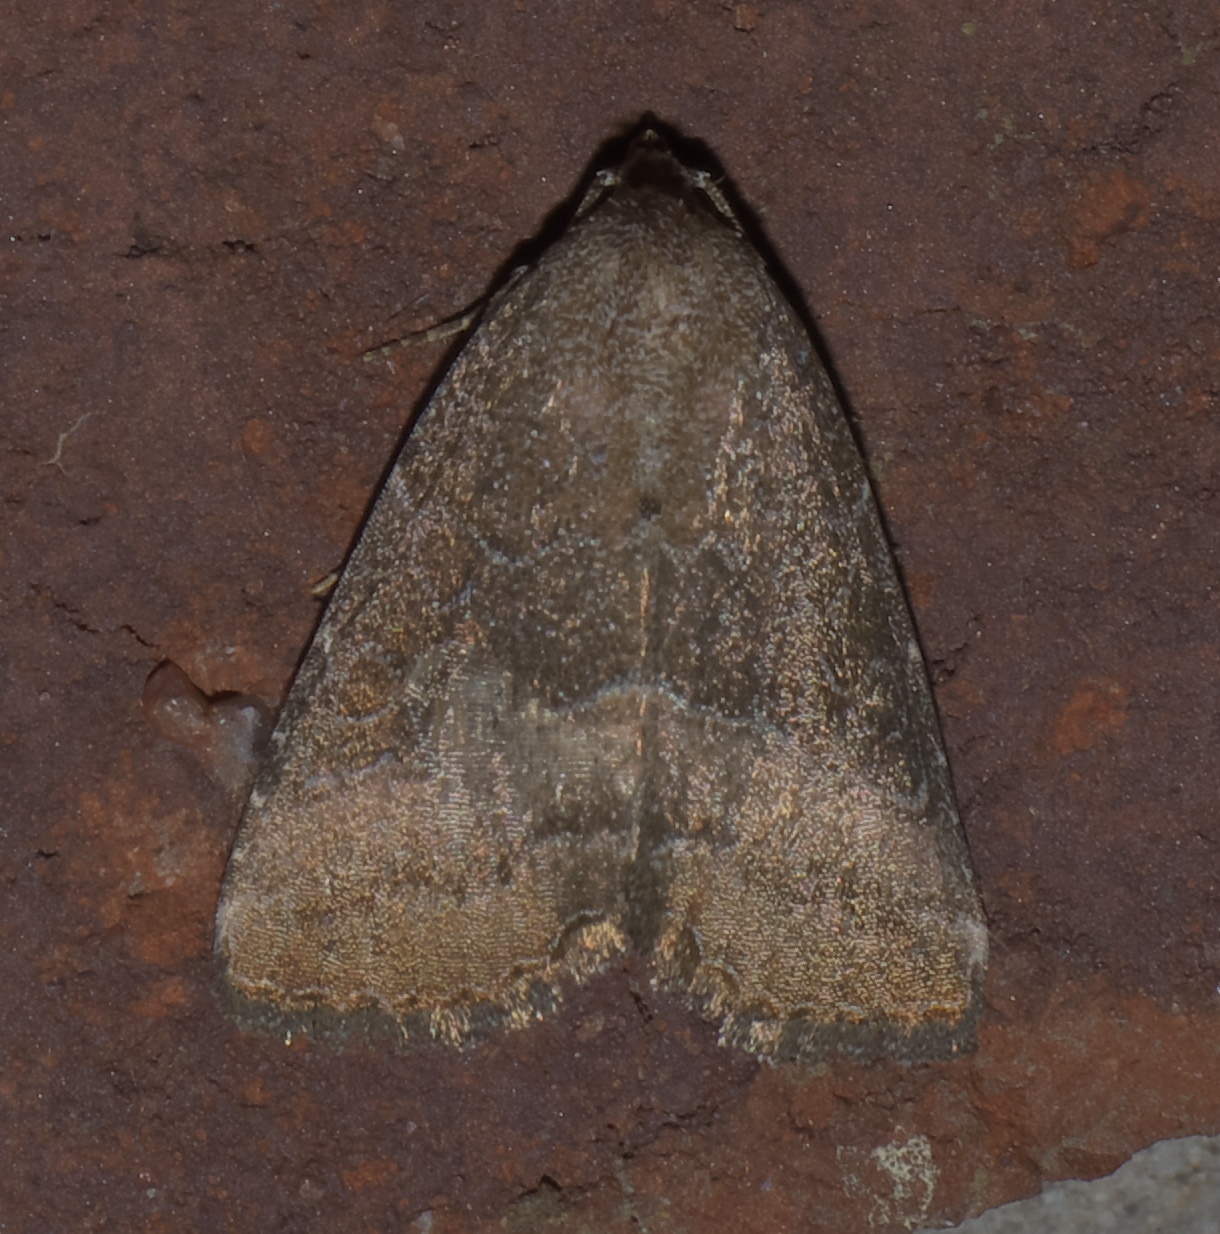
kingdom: Animalia
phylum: Arthropoda
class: Insecta
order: Lepidoptera
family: Noctuidae
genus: Ogdoconta
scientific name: Ogdoconta cinereola
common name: Common pinkband
